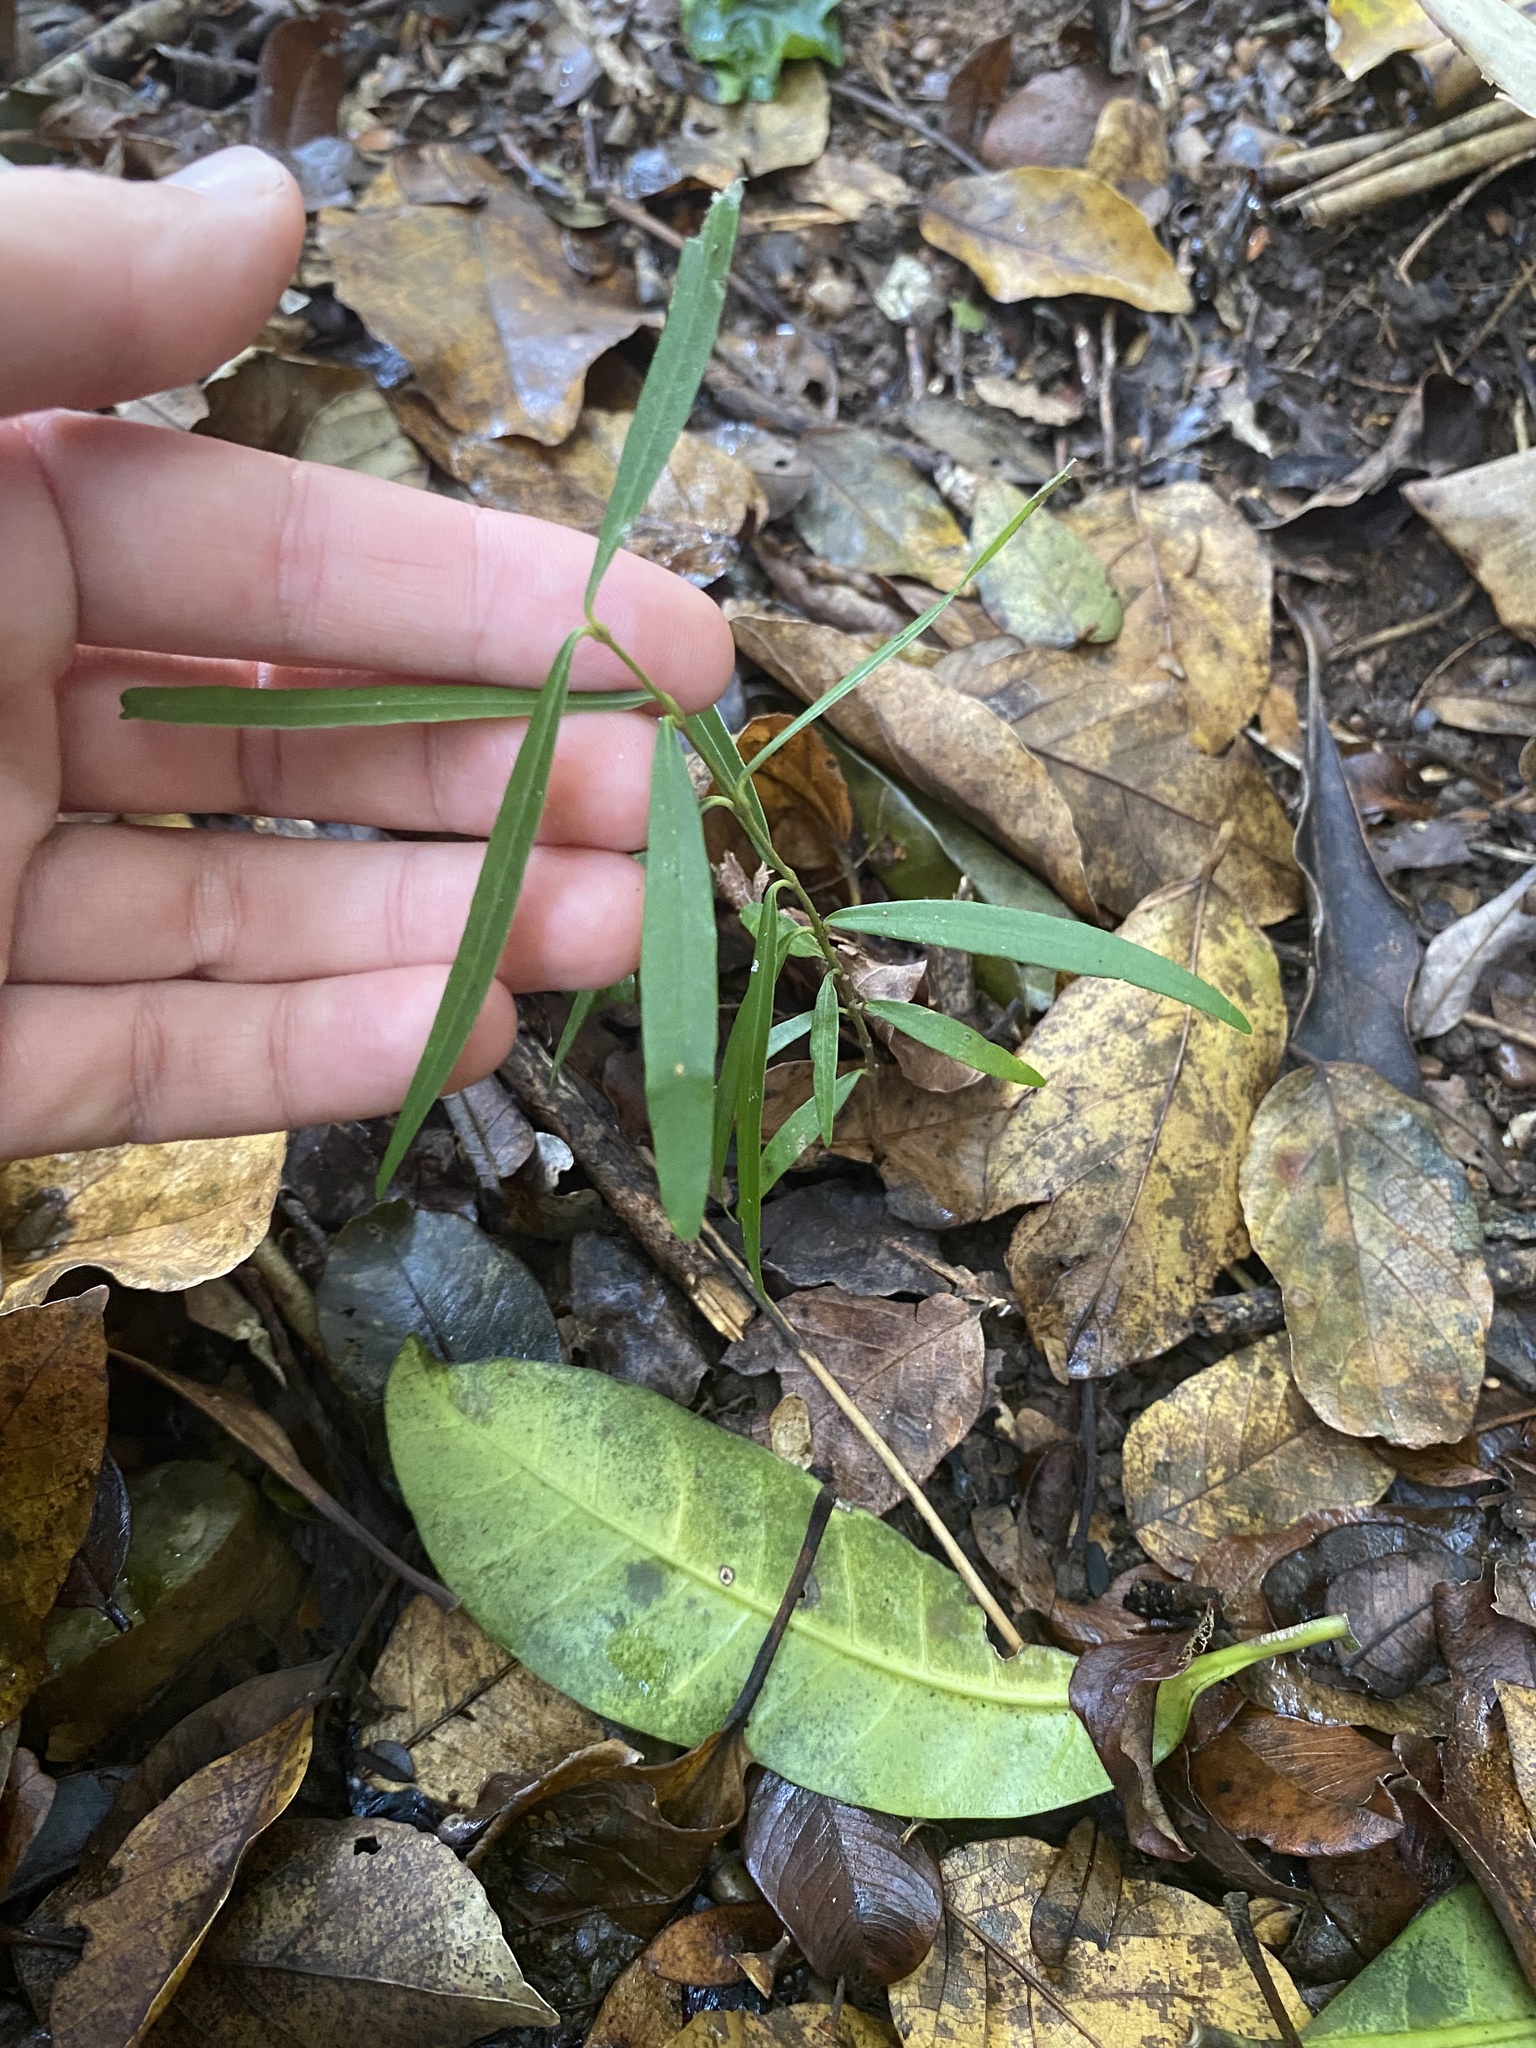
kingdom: Plantae
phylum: Tracheophyta
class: Liliopsida
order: Asparagales
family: Asparagaceae
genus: Asparagus
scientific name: Asparagus falcatus
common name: Asparagus
